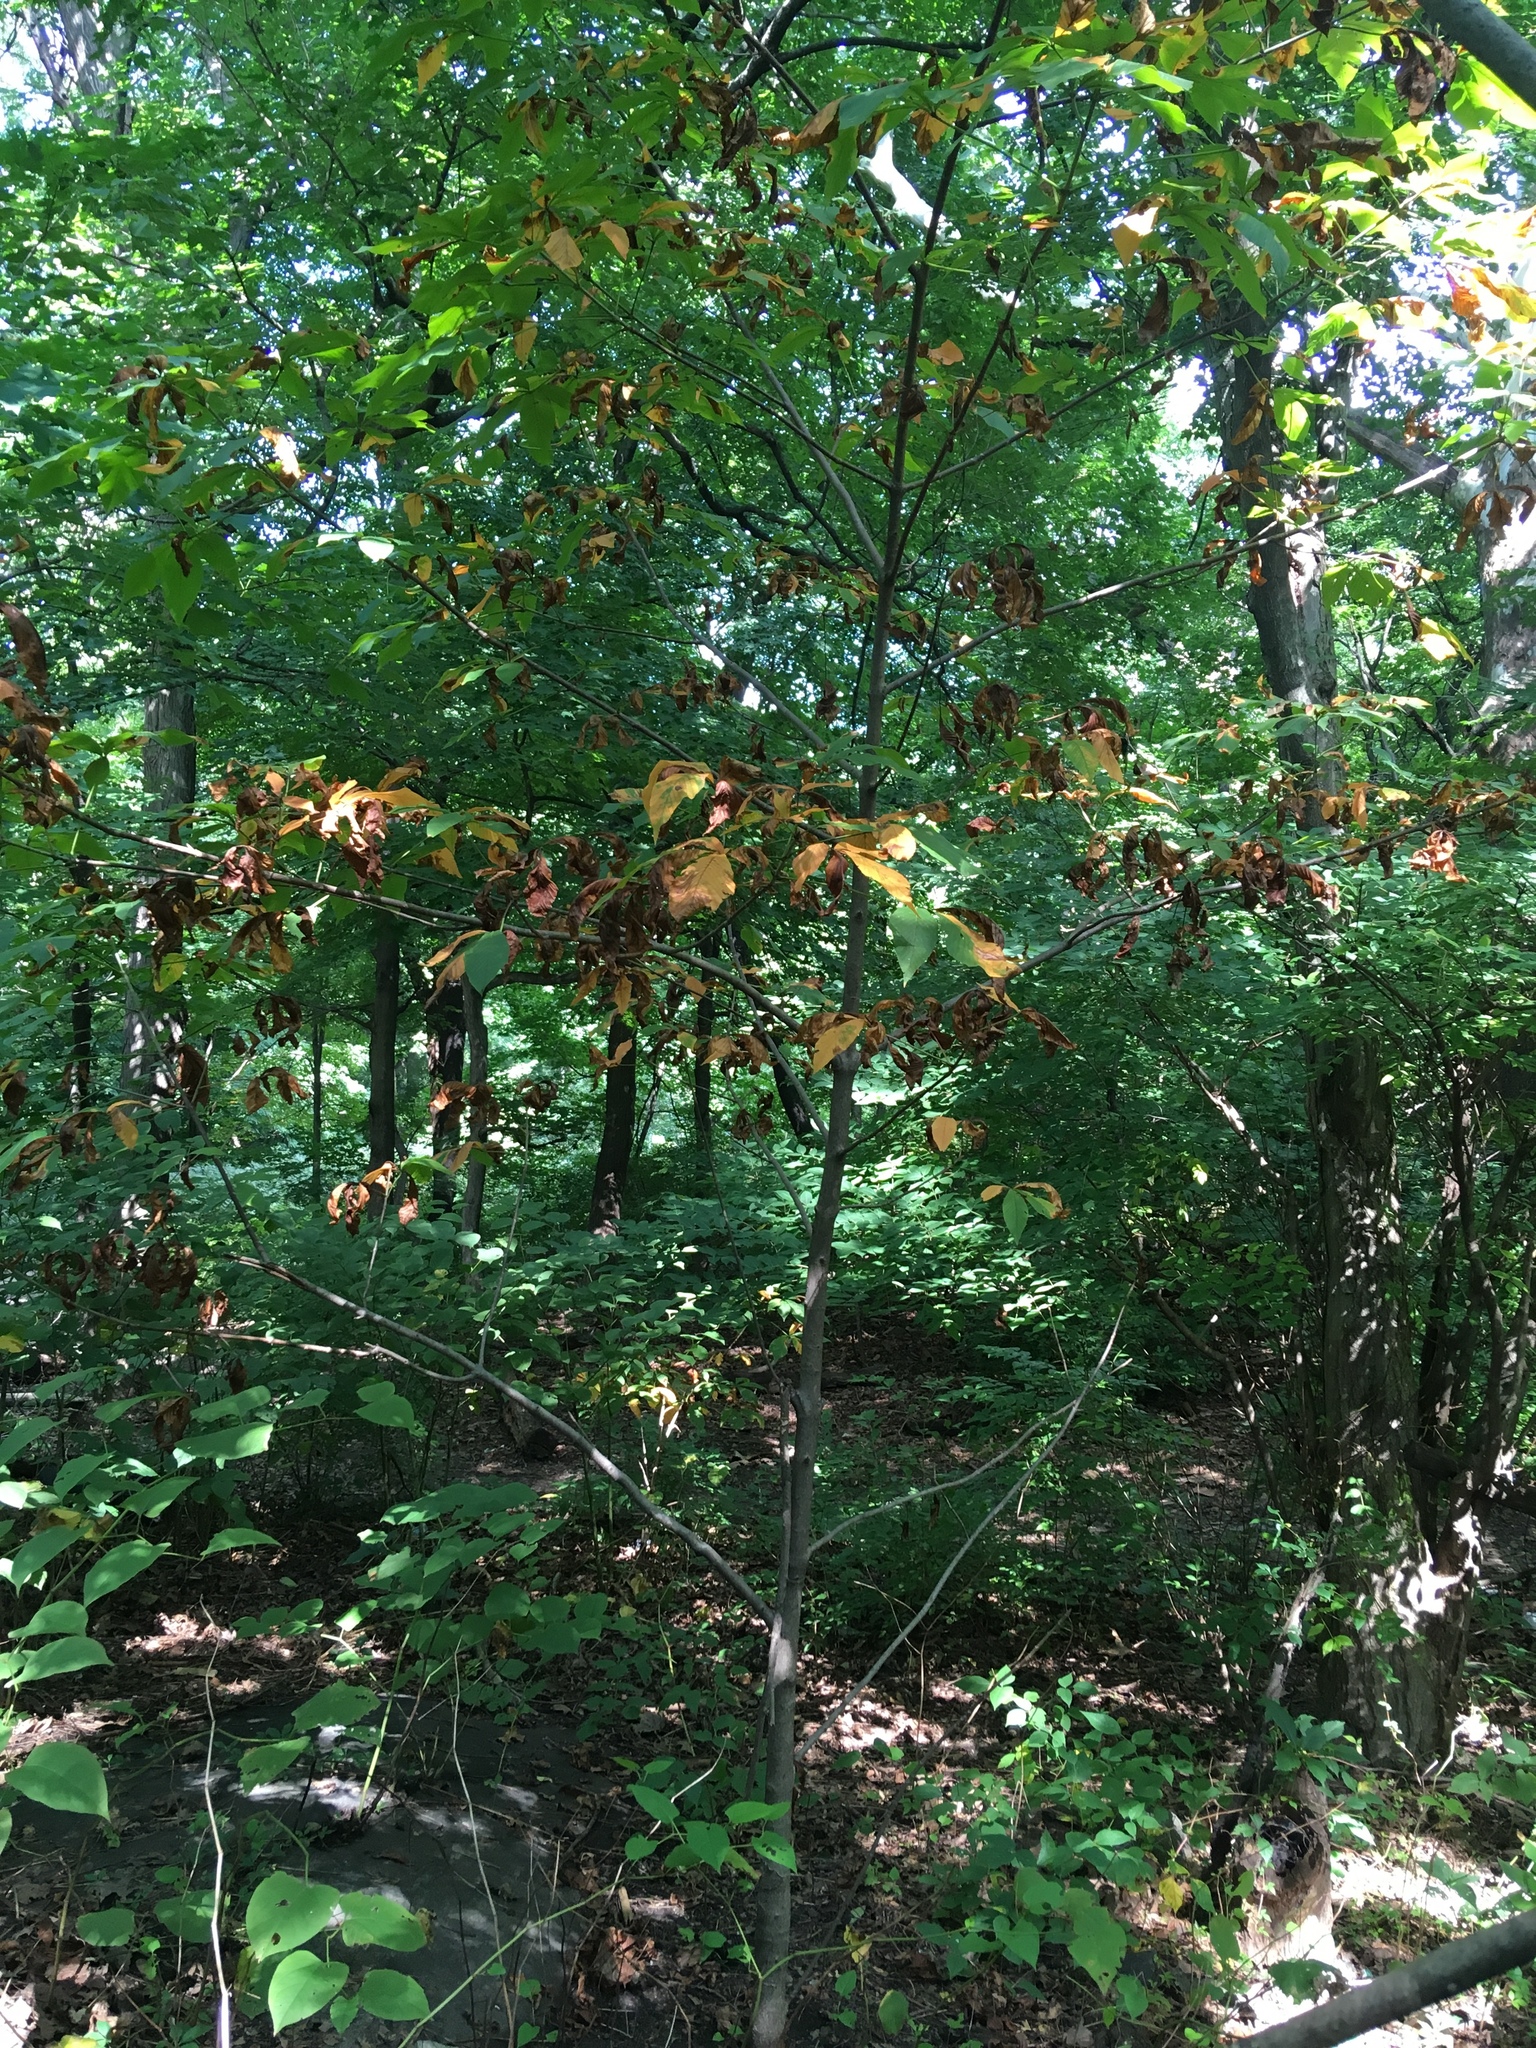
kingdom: Plantae
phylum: Tracheophyta
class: Magnoliopsida
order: Sapindales
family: Sapindaceae
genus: Aesculus
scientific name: Aesculus flava
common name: Yellow buckeye
